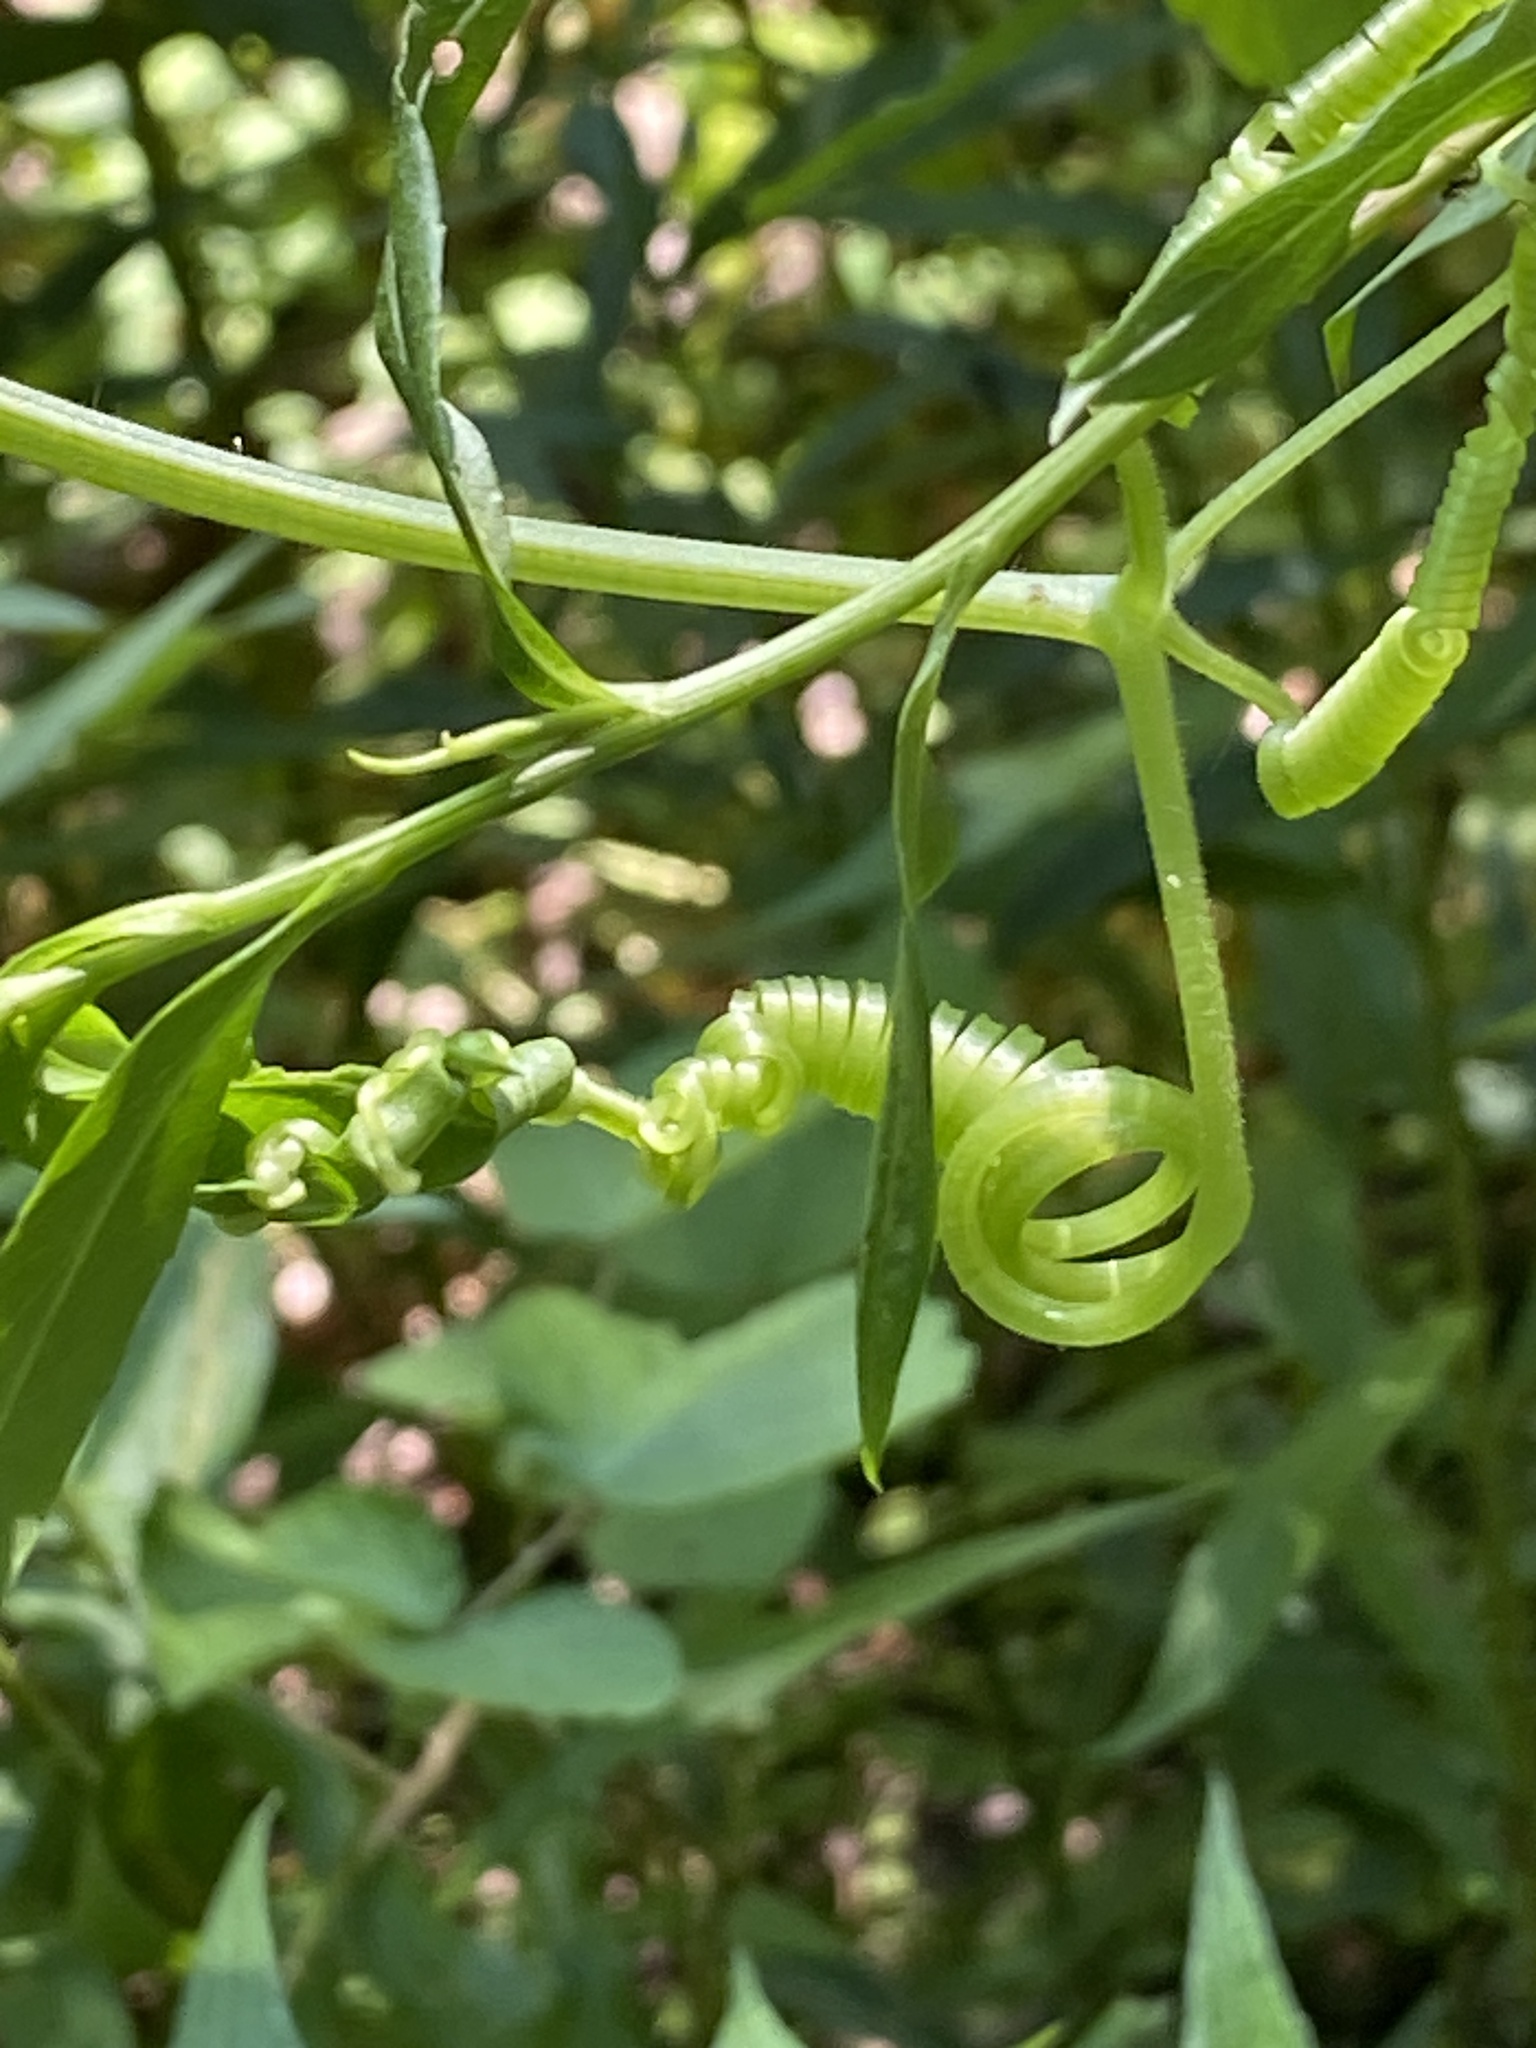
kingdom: Plantae
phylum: Tracheophyta
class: Magnoliopsida
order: Cucurbitales
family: Cucurbitaceae
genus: Sicyos
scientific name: Sicyos angulatus
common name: Angled burr cucumber
